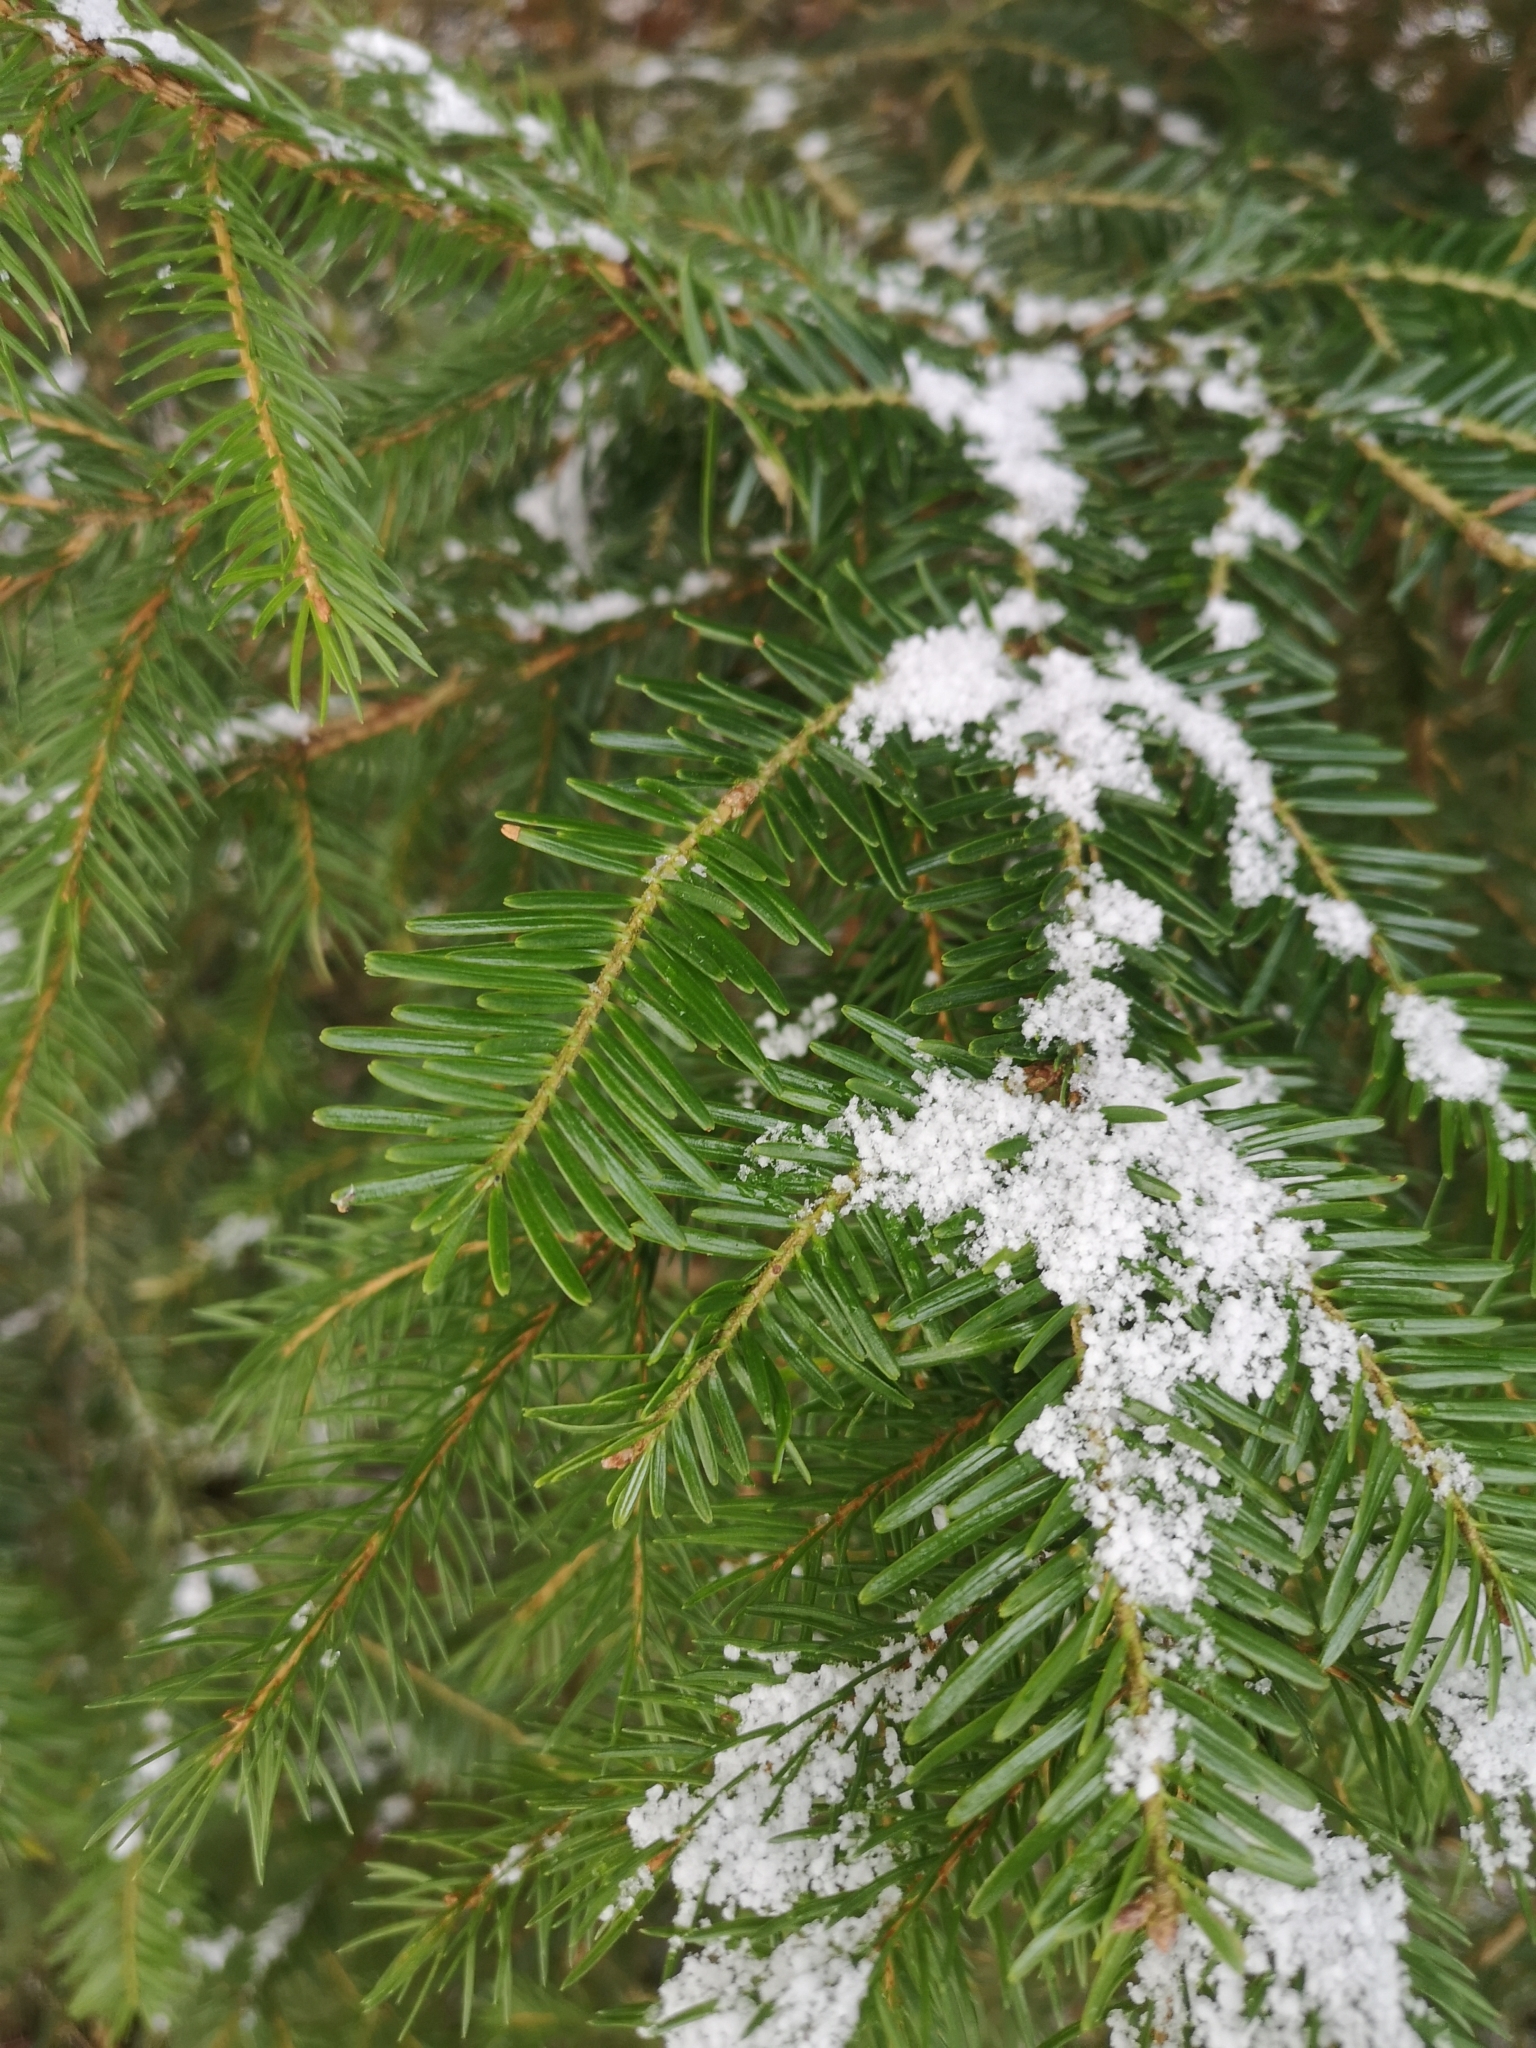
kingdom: Plantae
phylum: Tracheophyta
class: Pinopsida
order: Pinales
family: Pinaceae
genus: Abies
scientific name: Abies alba
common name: Silver fir
